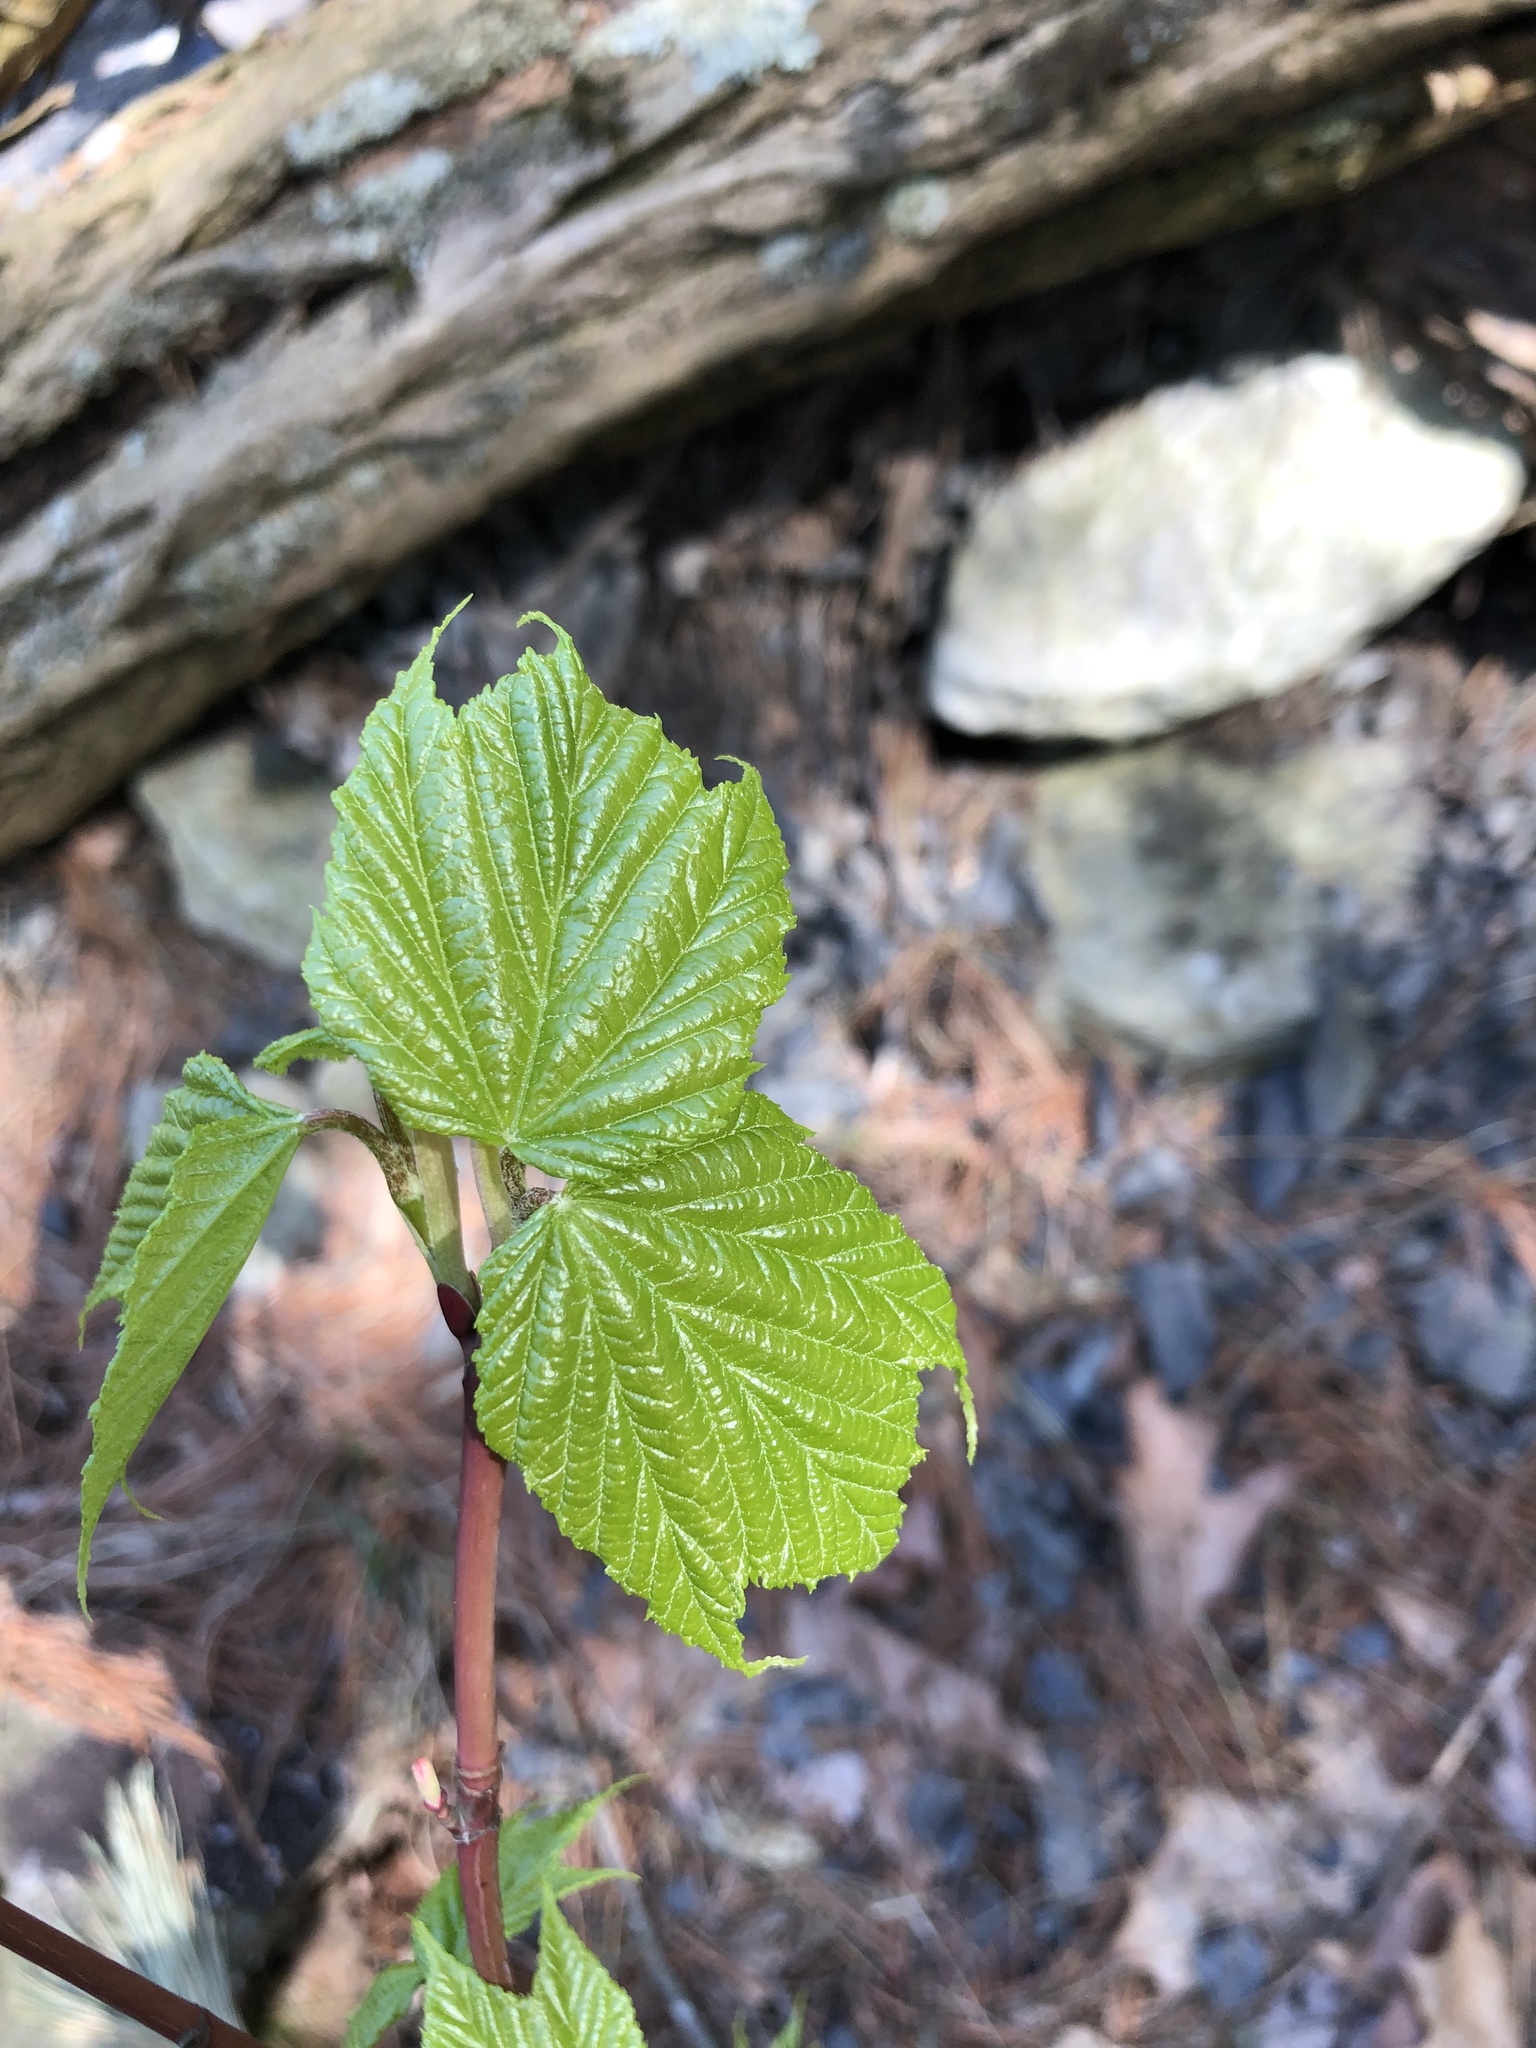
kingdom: Plantae
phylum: Tracheophyta
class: Magnoliopsida
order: Sapindales
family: Sapindaceae
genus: Acer
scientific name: Acer pensylvanicum
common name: Moosewood
